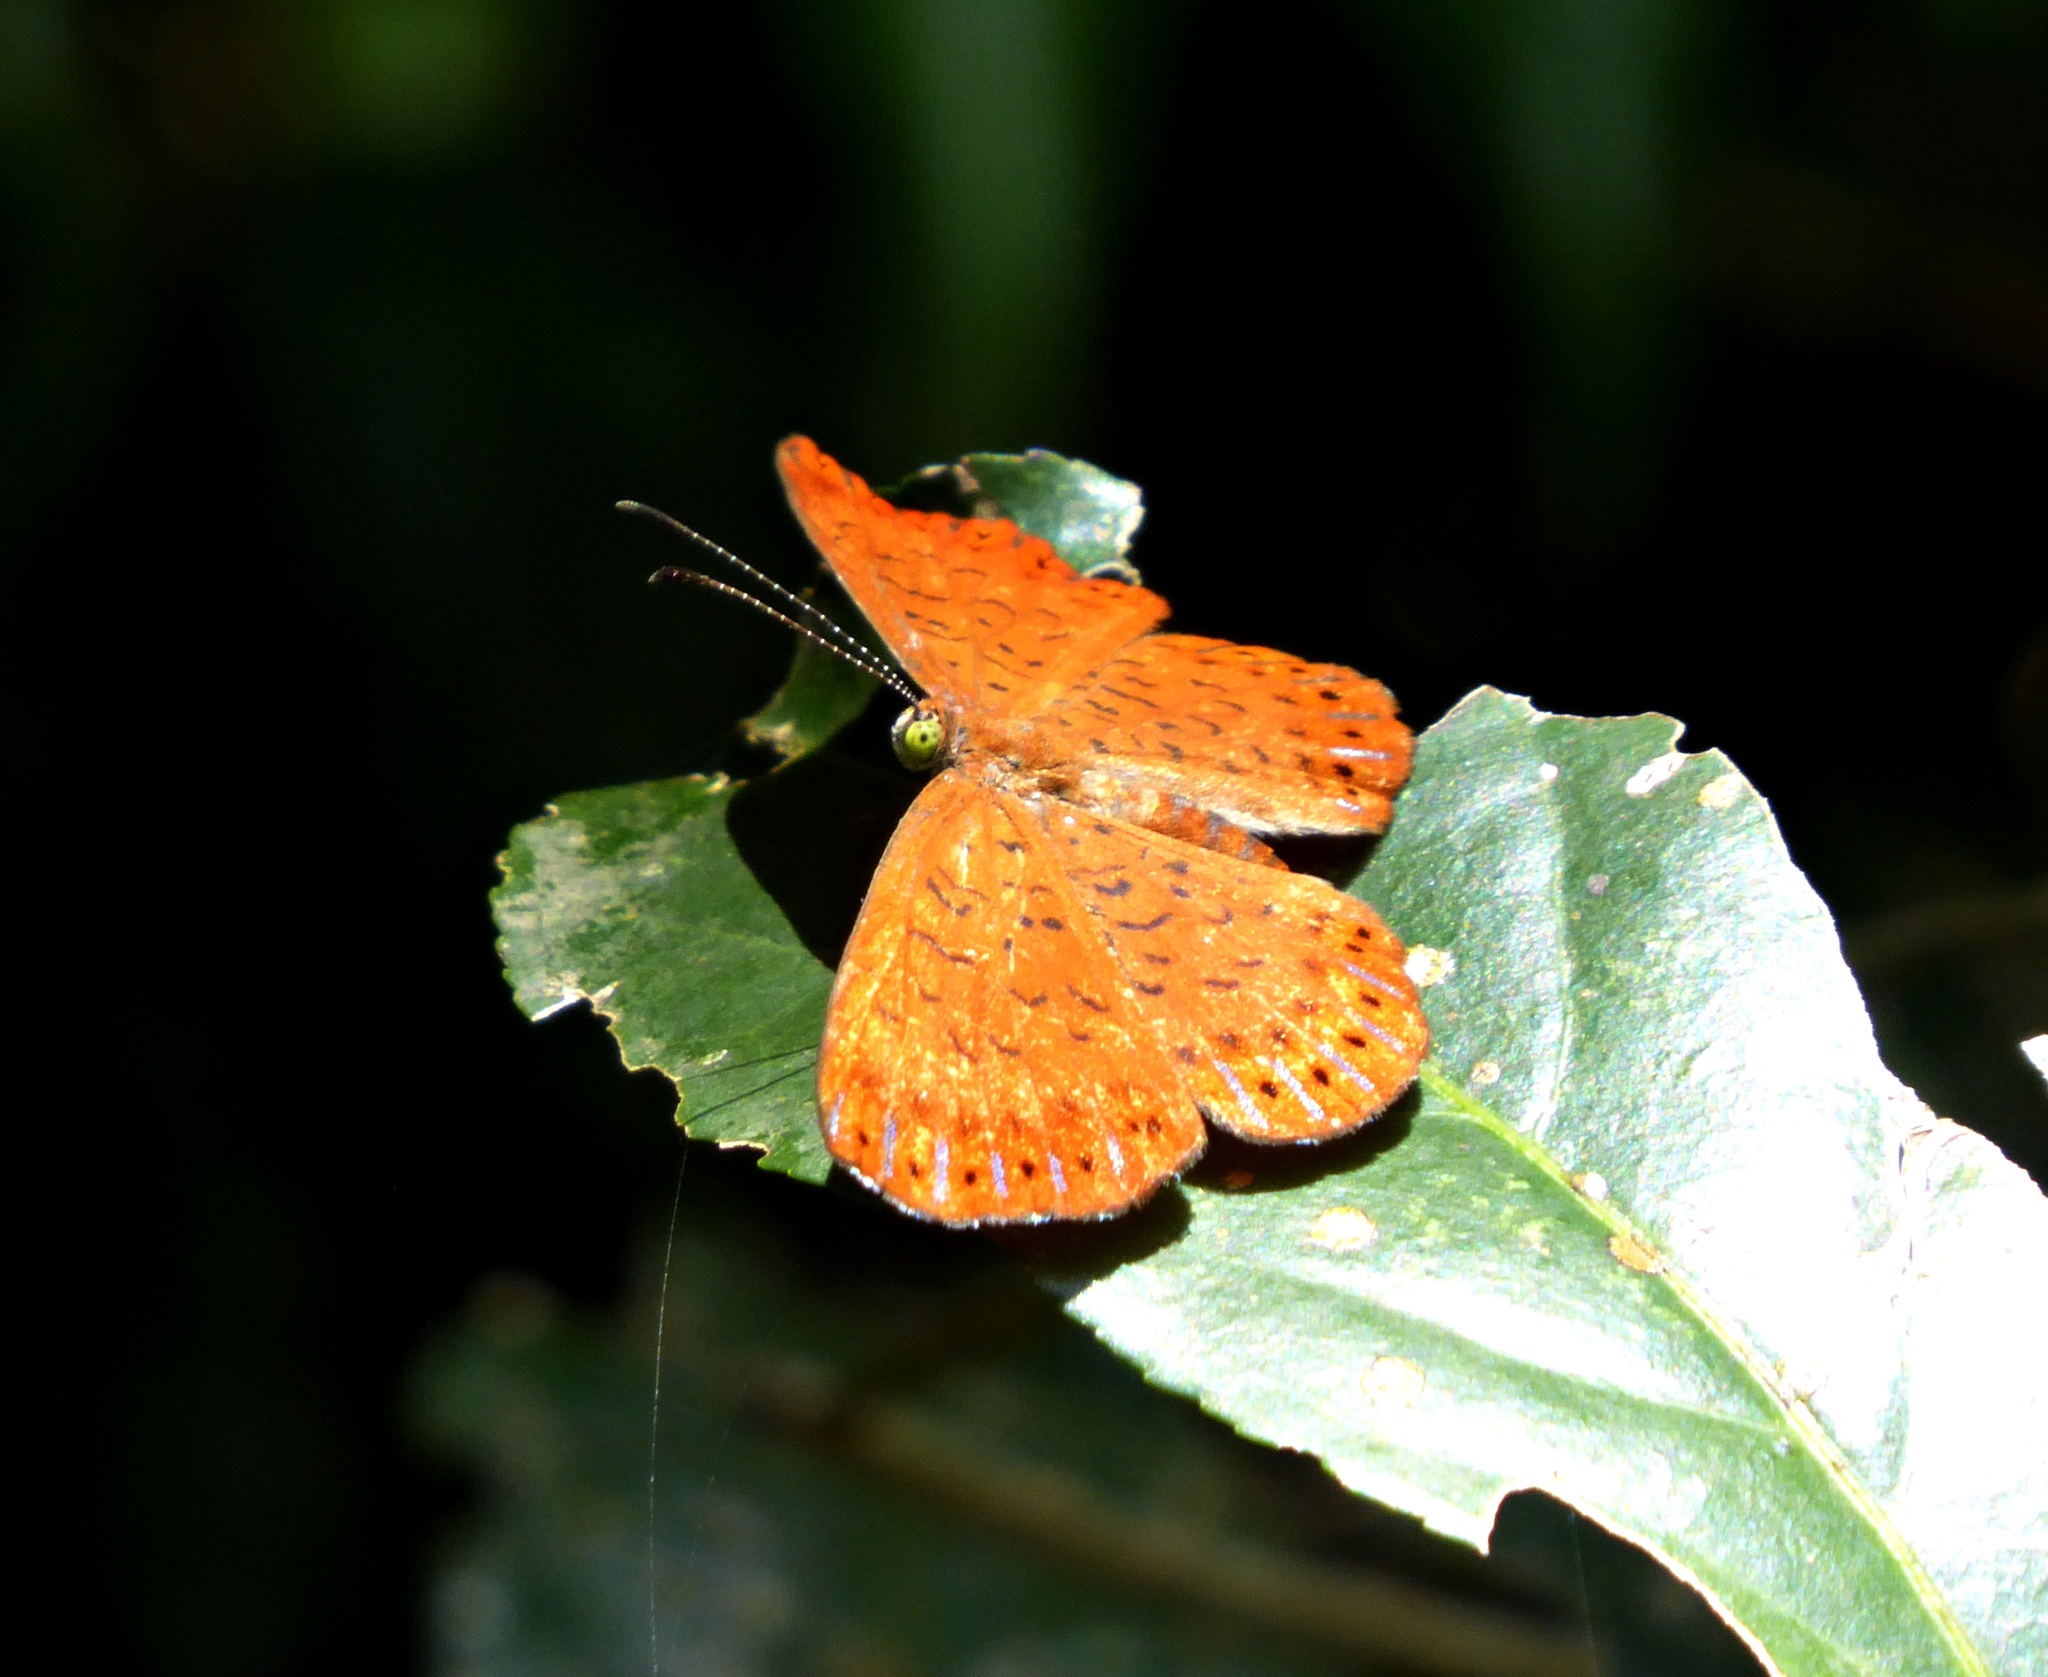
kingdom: Animalia
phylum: Arthropoda
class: Insecta
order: Lepidoptera
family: Riodinidae
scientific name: Riodinidae
